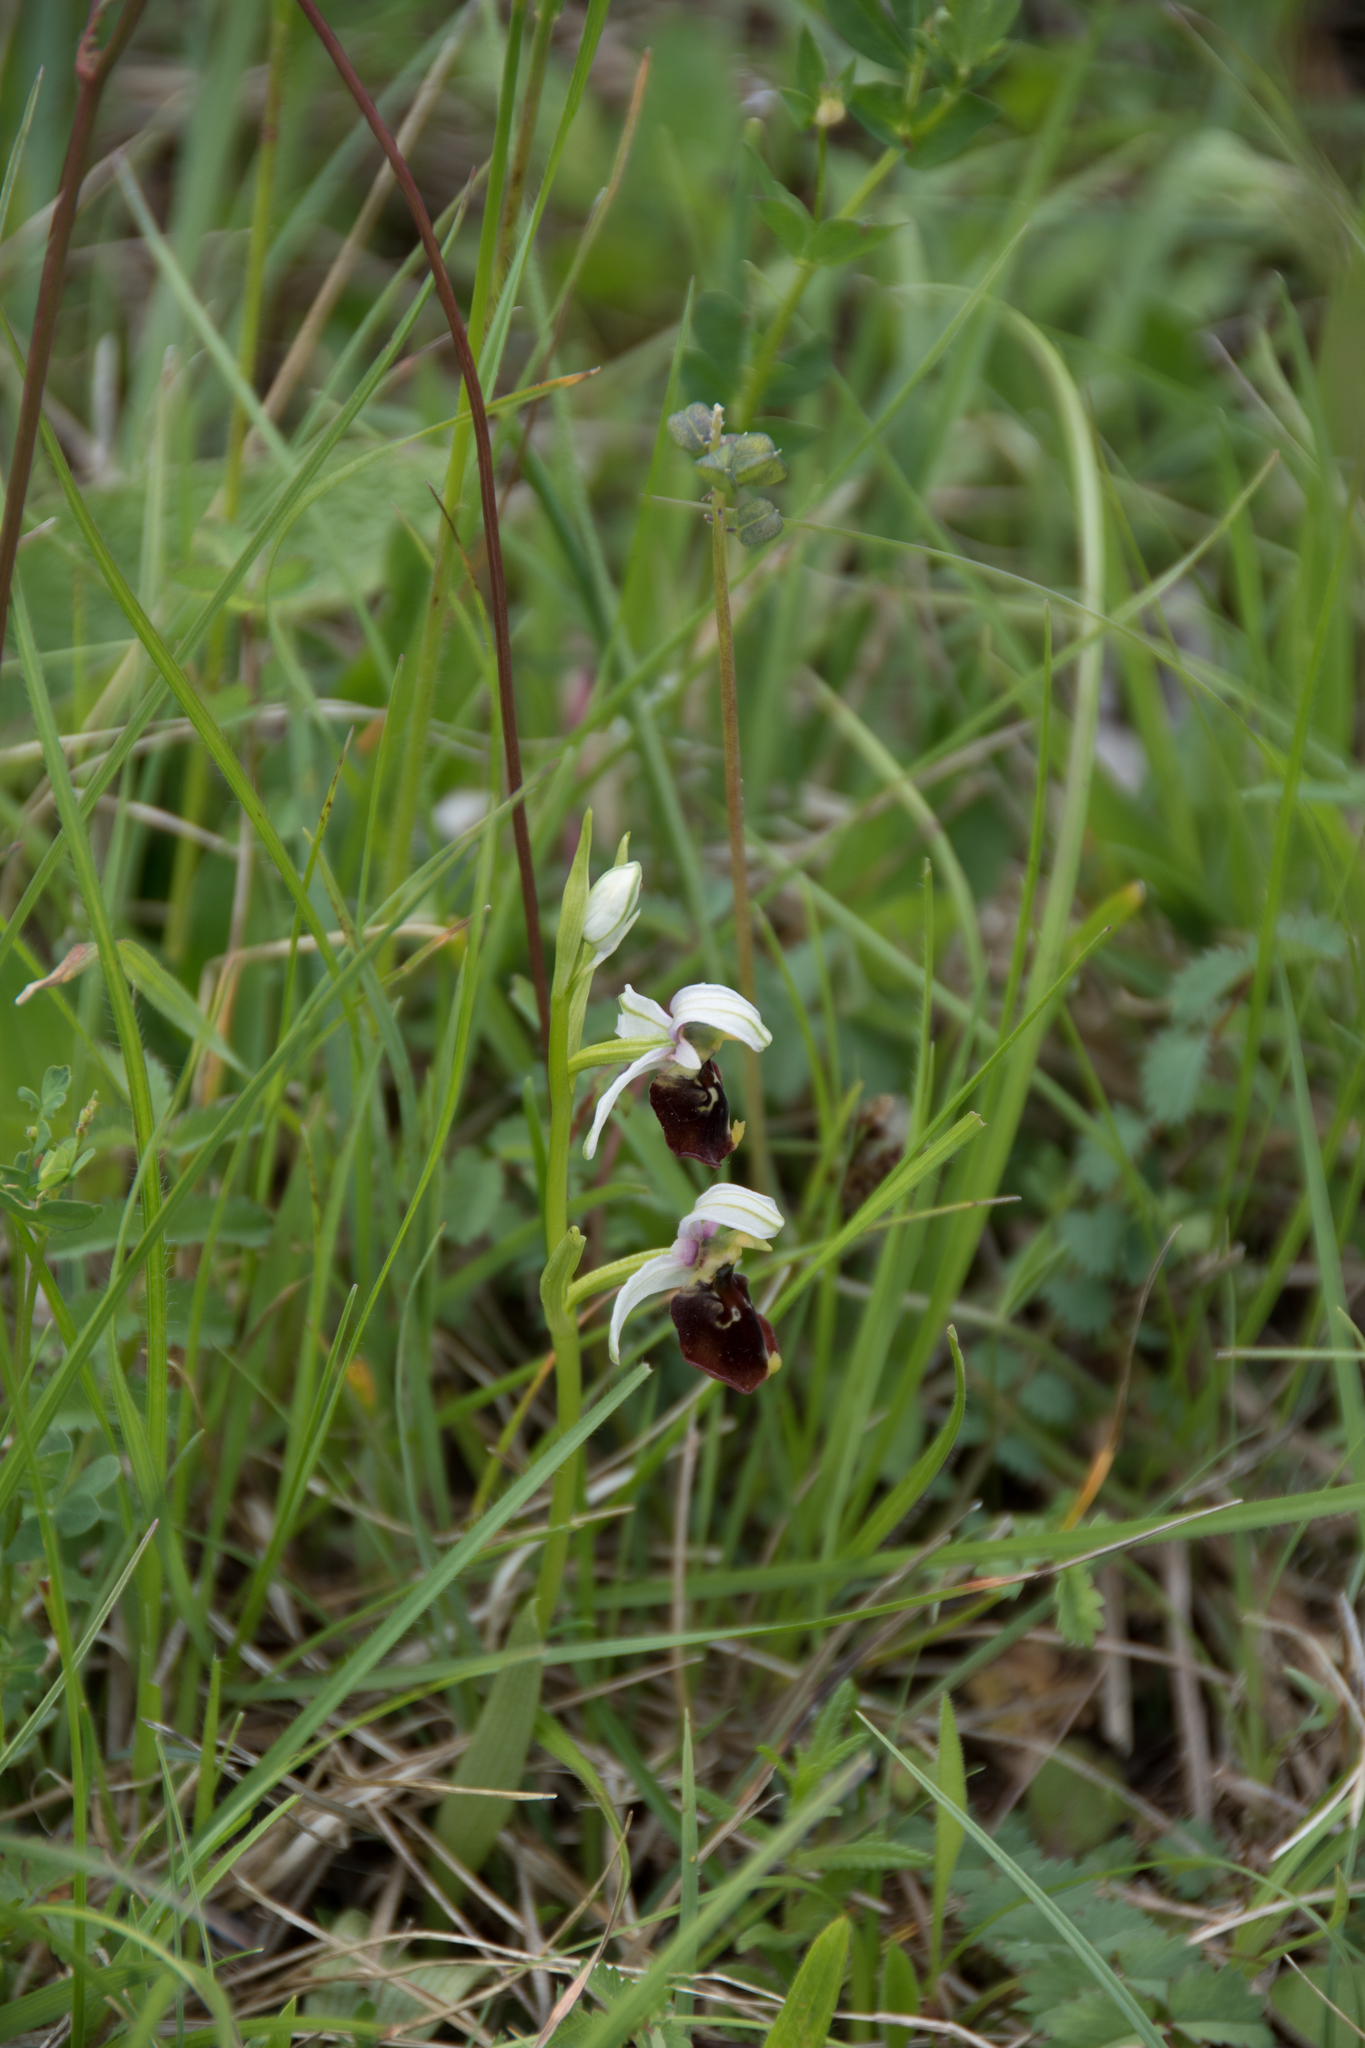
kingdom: Plantae
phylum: Tracheophyta
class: Liliopsida
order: Asparagales
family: Orchidaceae
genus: Ophrys
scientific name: Ophrys holosericea
